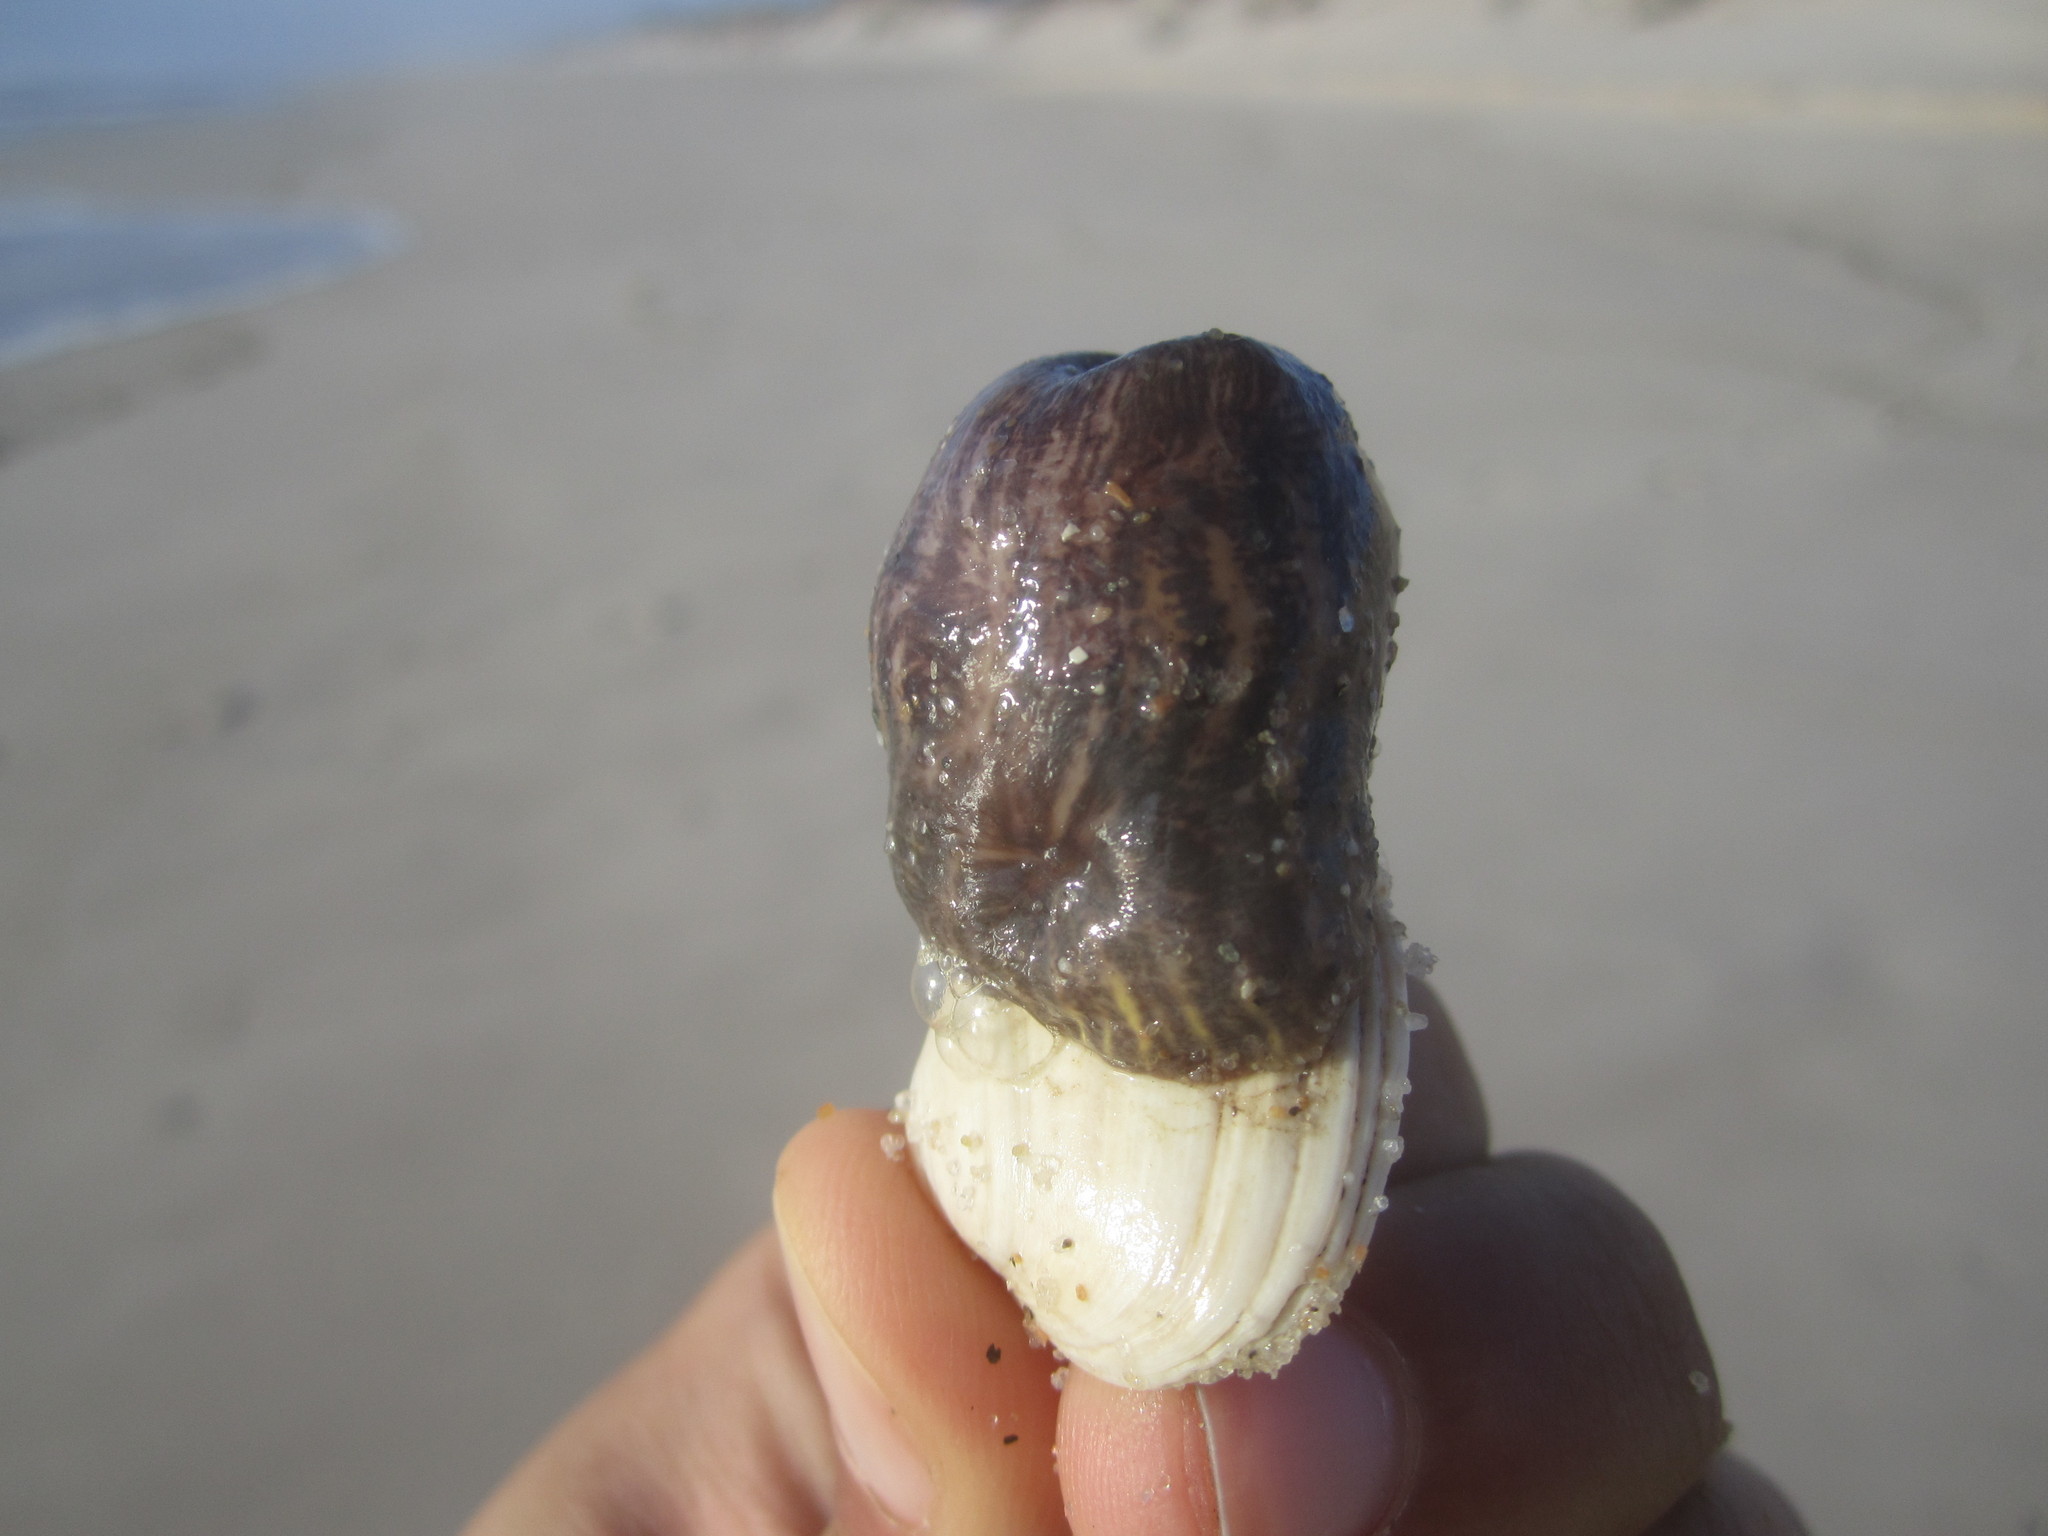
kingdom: Animalia
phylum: Cnidaria
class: Anthozoa
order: Actiniaria
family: Hormathiidae
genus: Calliactis
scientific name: Calliactis parasitica
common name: Parasitic anemone
